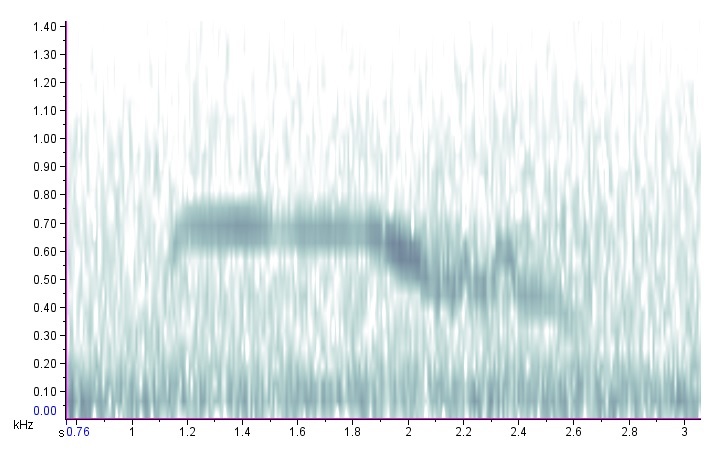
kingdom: Animalia
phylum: Chordata
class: Aves
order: Strigiformes
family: Strigidae
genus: Strix
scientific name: Strix varia
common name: Barred owl
